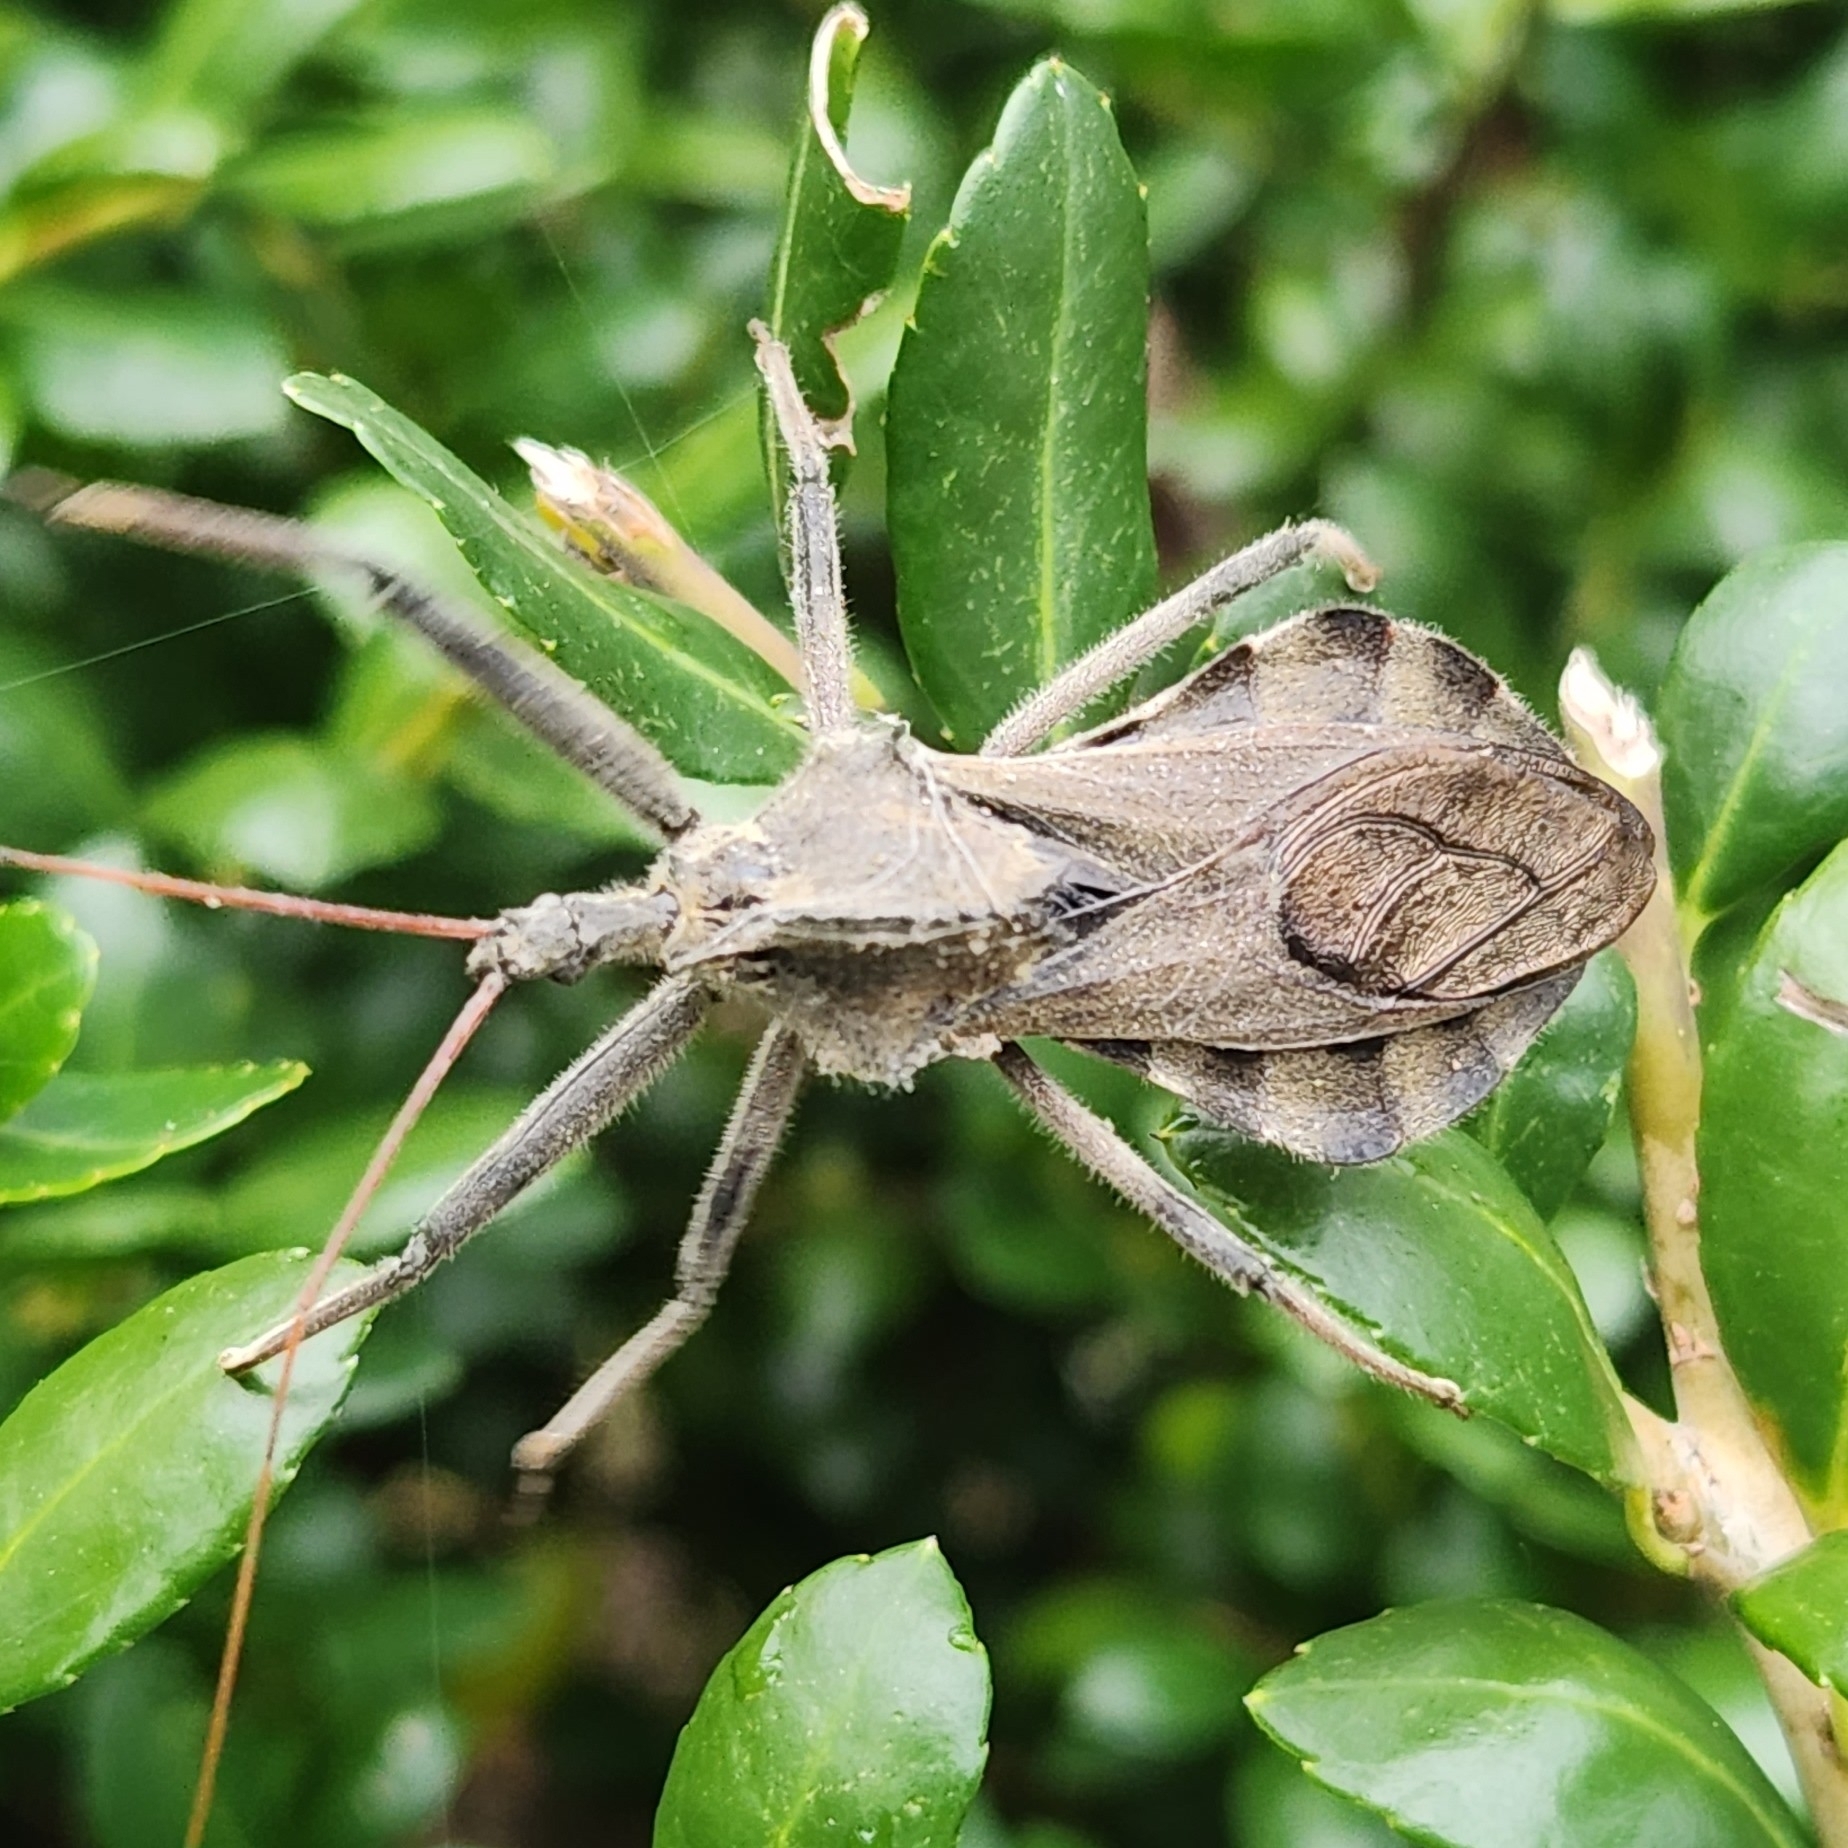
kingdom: Animalia
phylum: Arthropoda
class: Insecta
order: Hemiptera
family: Reduviidae
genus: Arilus
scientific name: Arilus cristatus
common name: North american wheel bug
